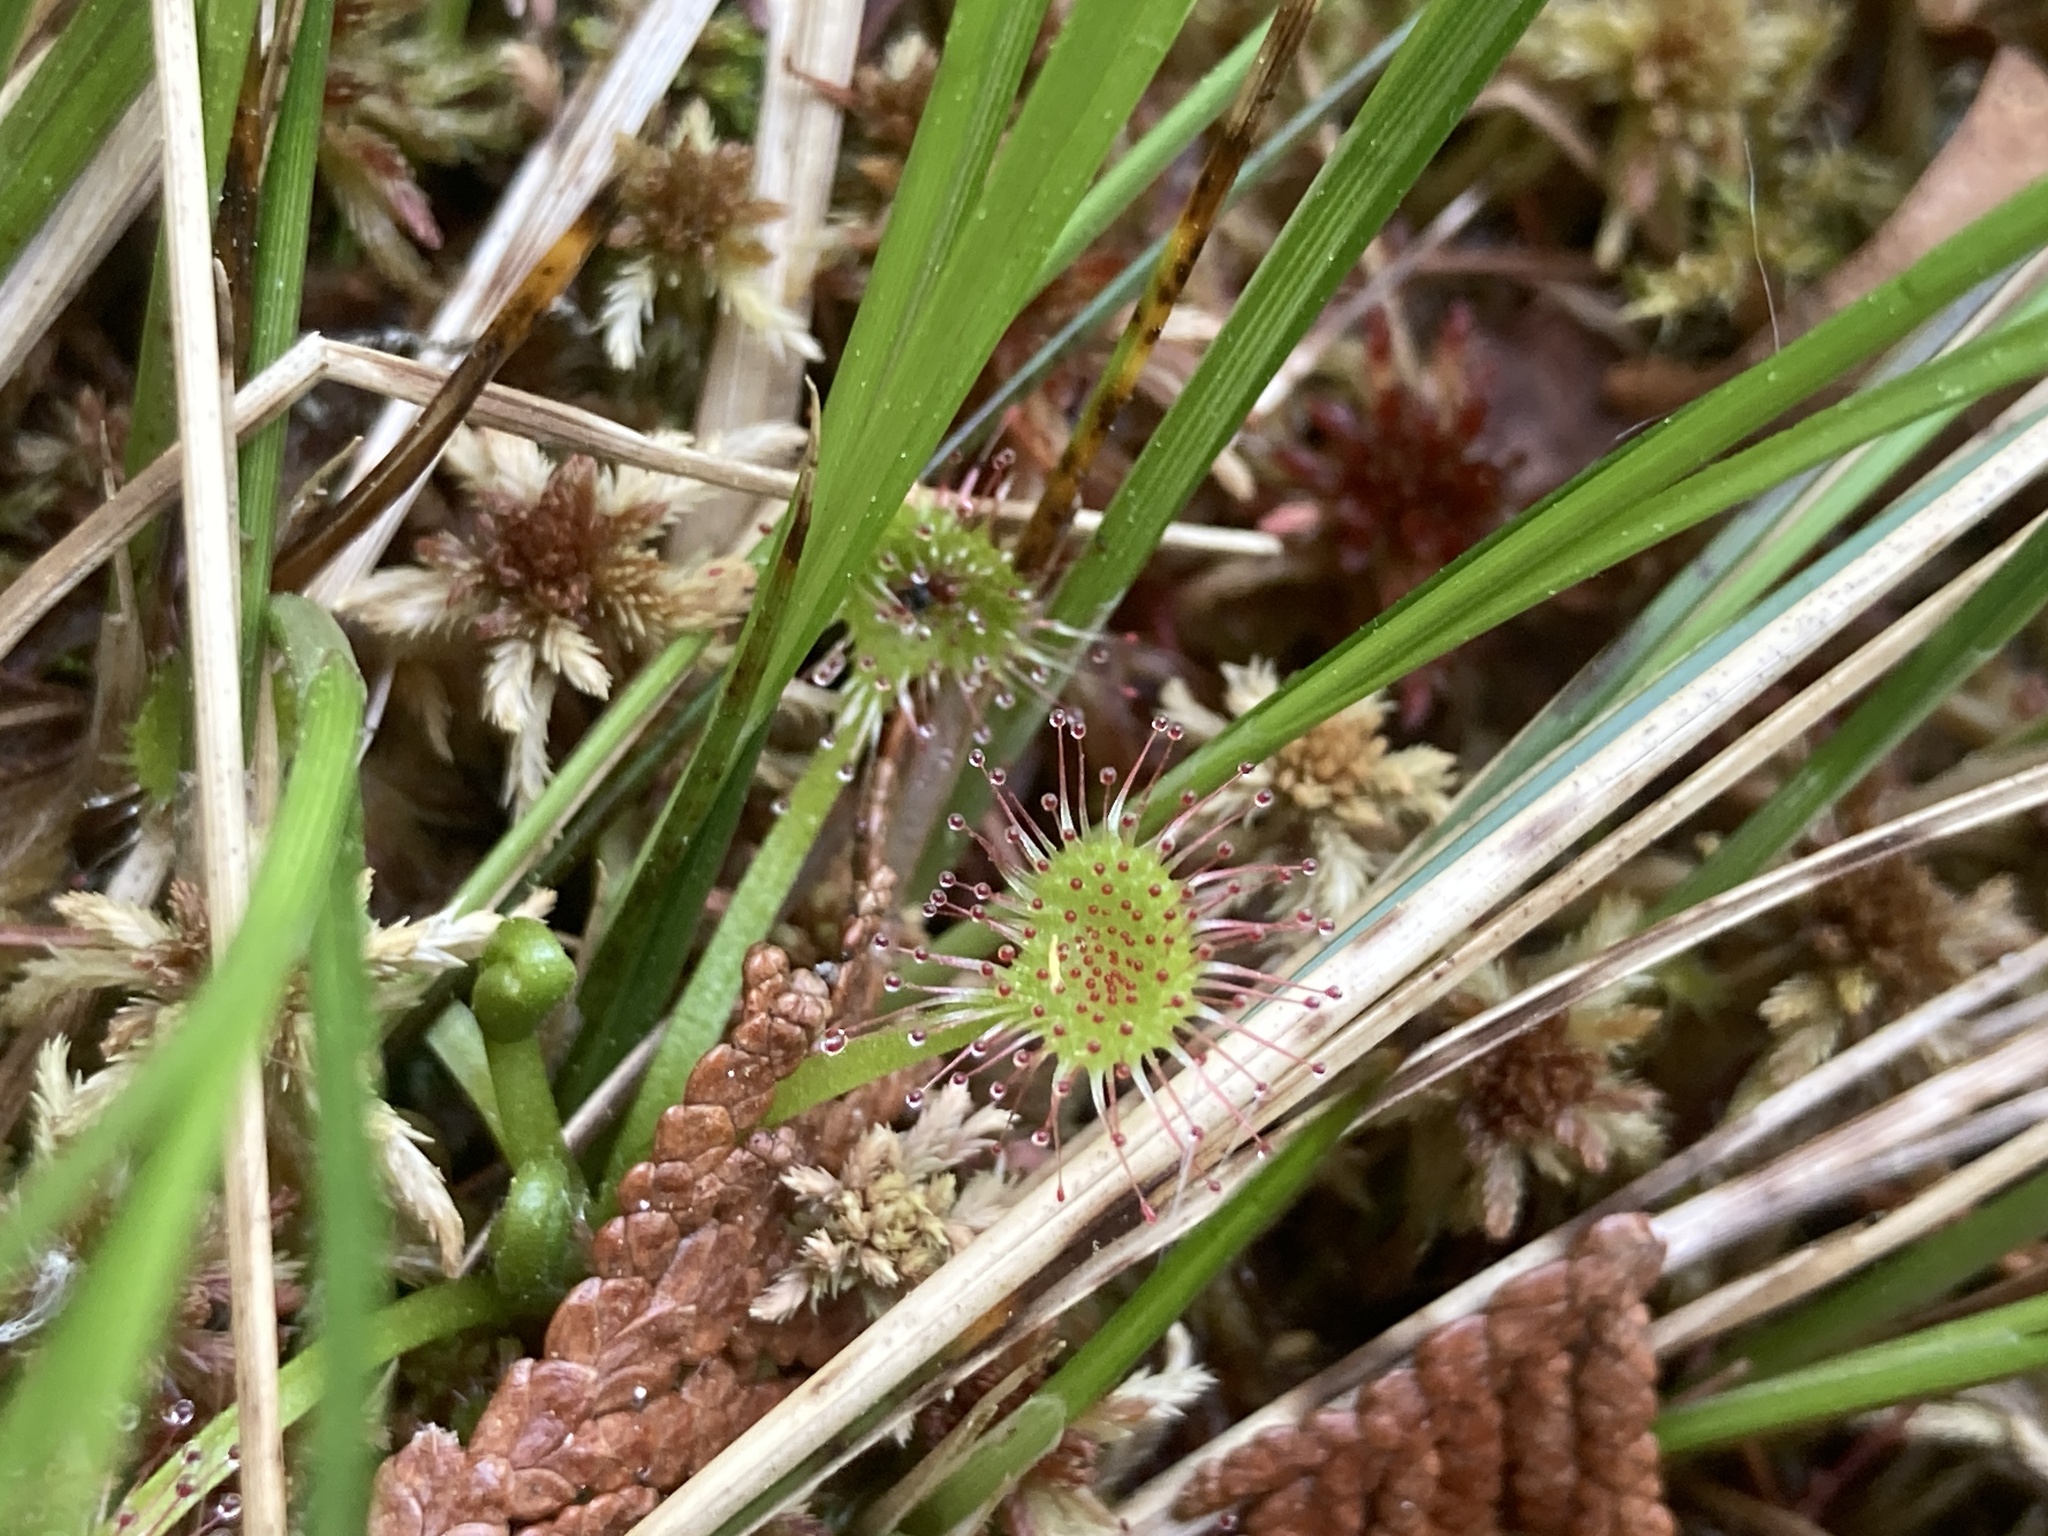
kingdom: Plantae
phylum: Tracheophyta
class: Magnoliopsida
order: Caryophyllales
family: Droseraceae
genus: Drosera
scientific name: Drosera rotundifolia
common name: Round-leaved sundew
